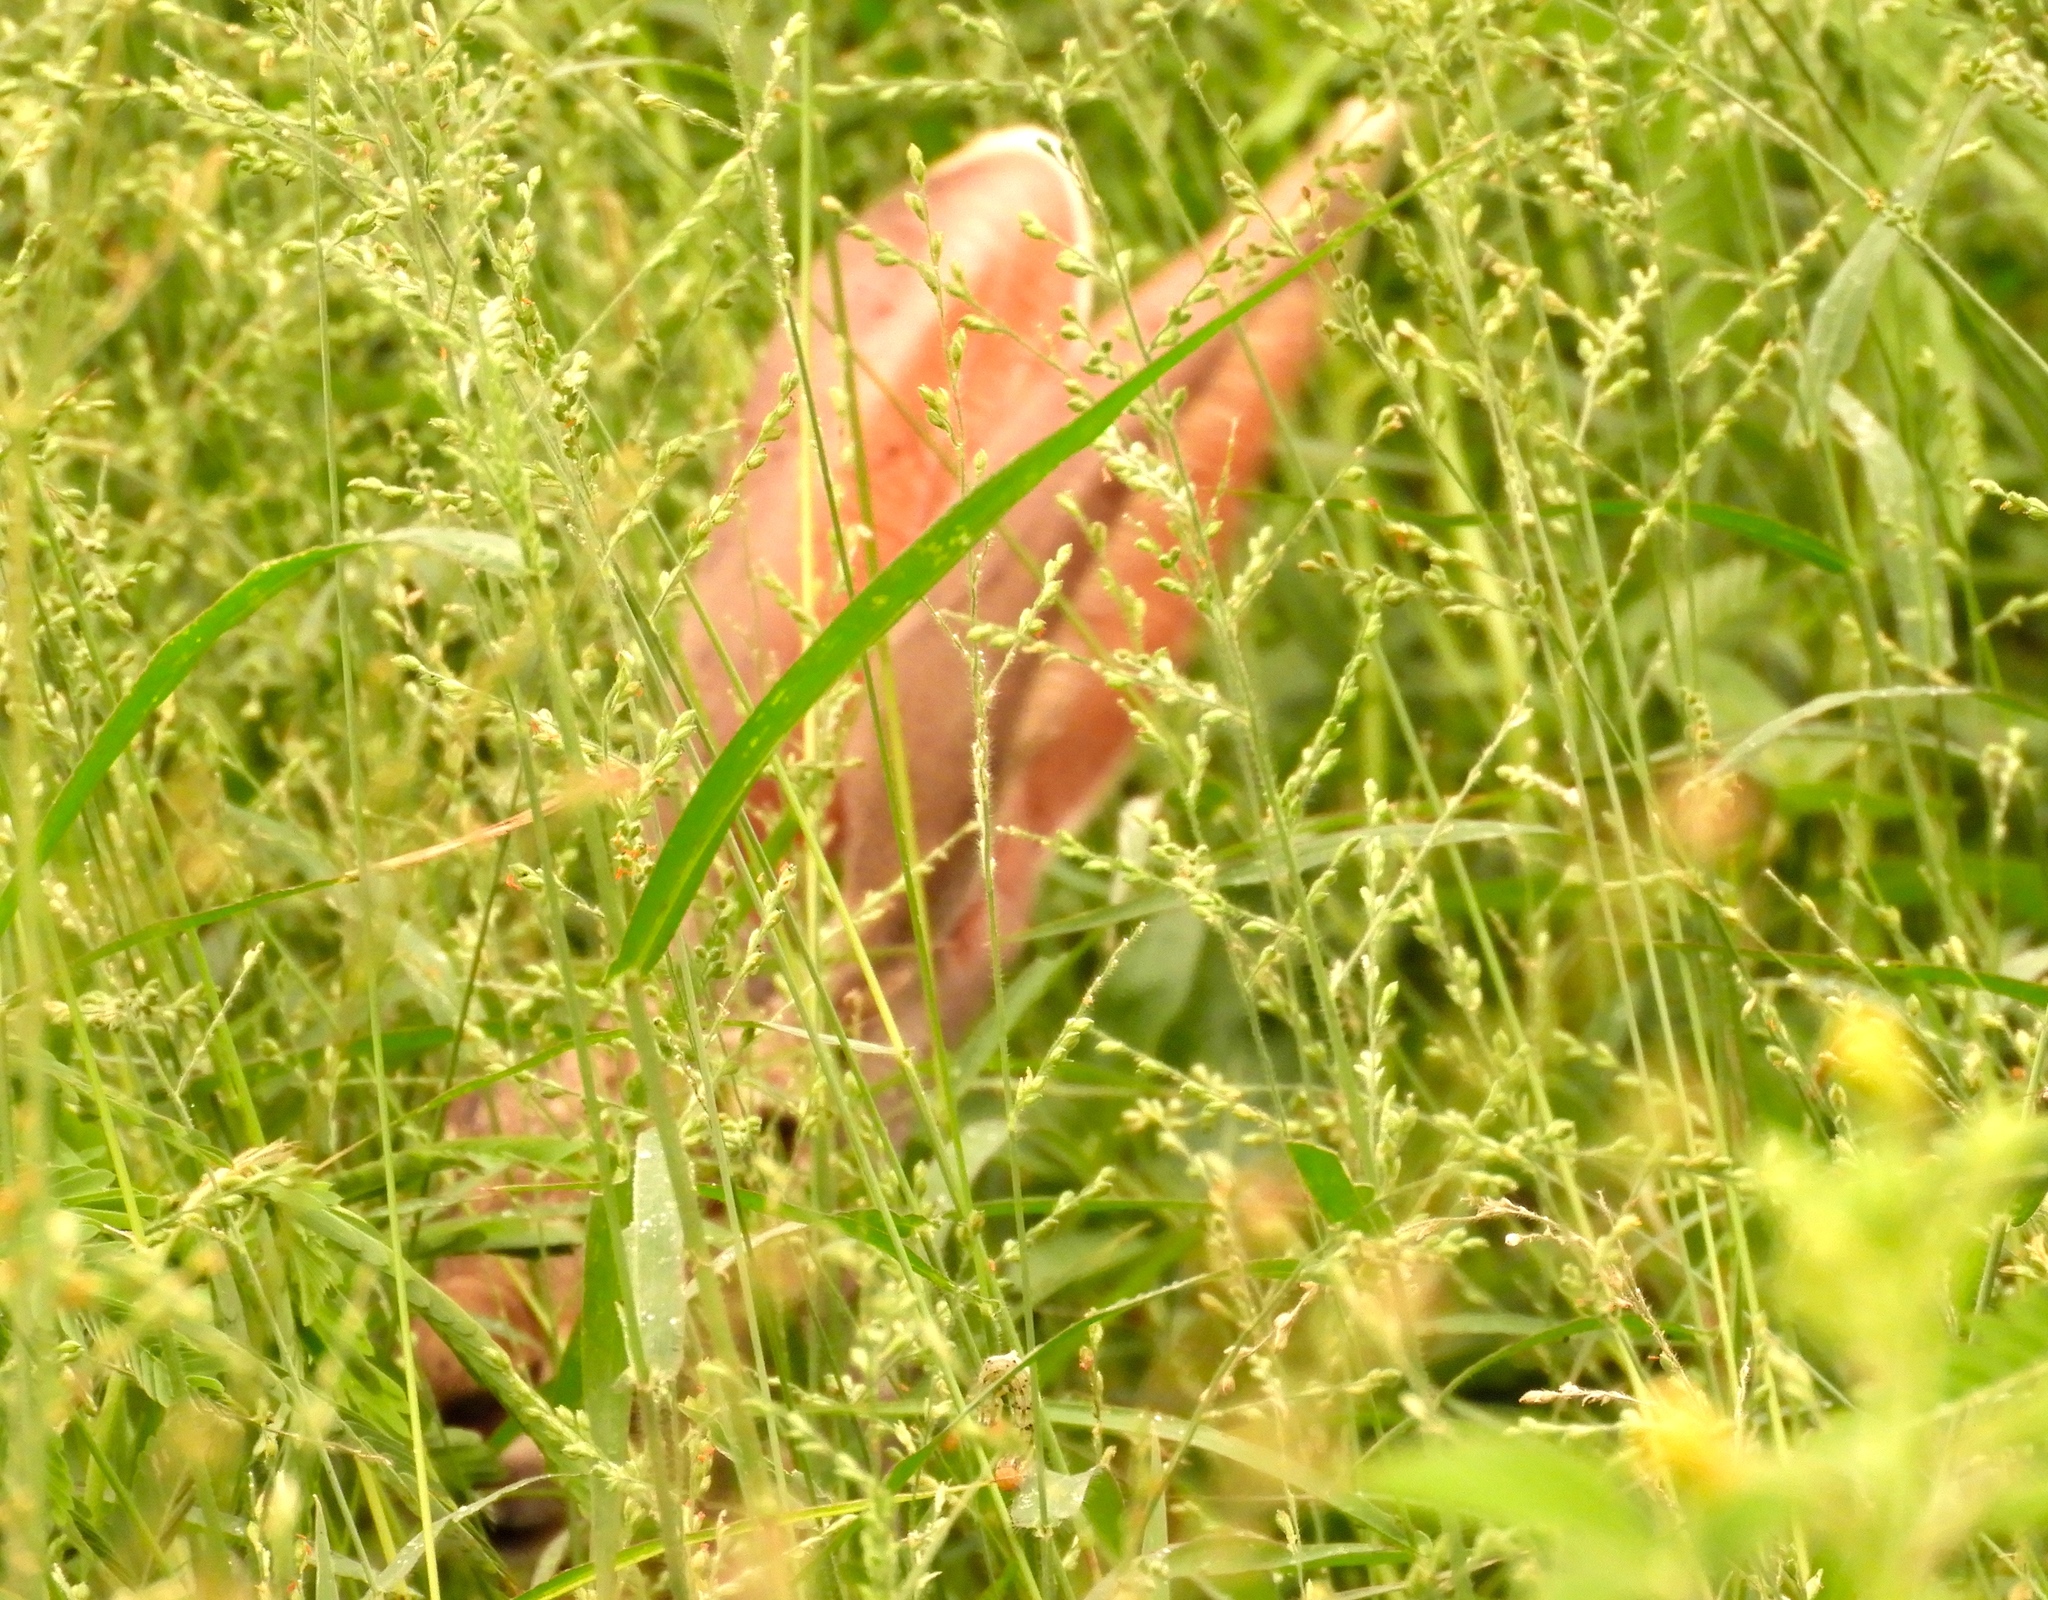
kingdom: Animalia
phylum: Chordata
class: Mammalia
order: Lagomorpha
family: Leporidae
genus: Lepus
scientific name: Lepus alleni
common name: Antelope jackrabbit
